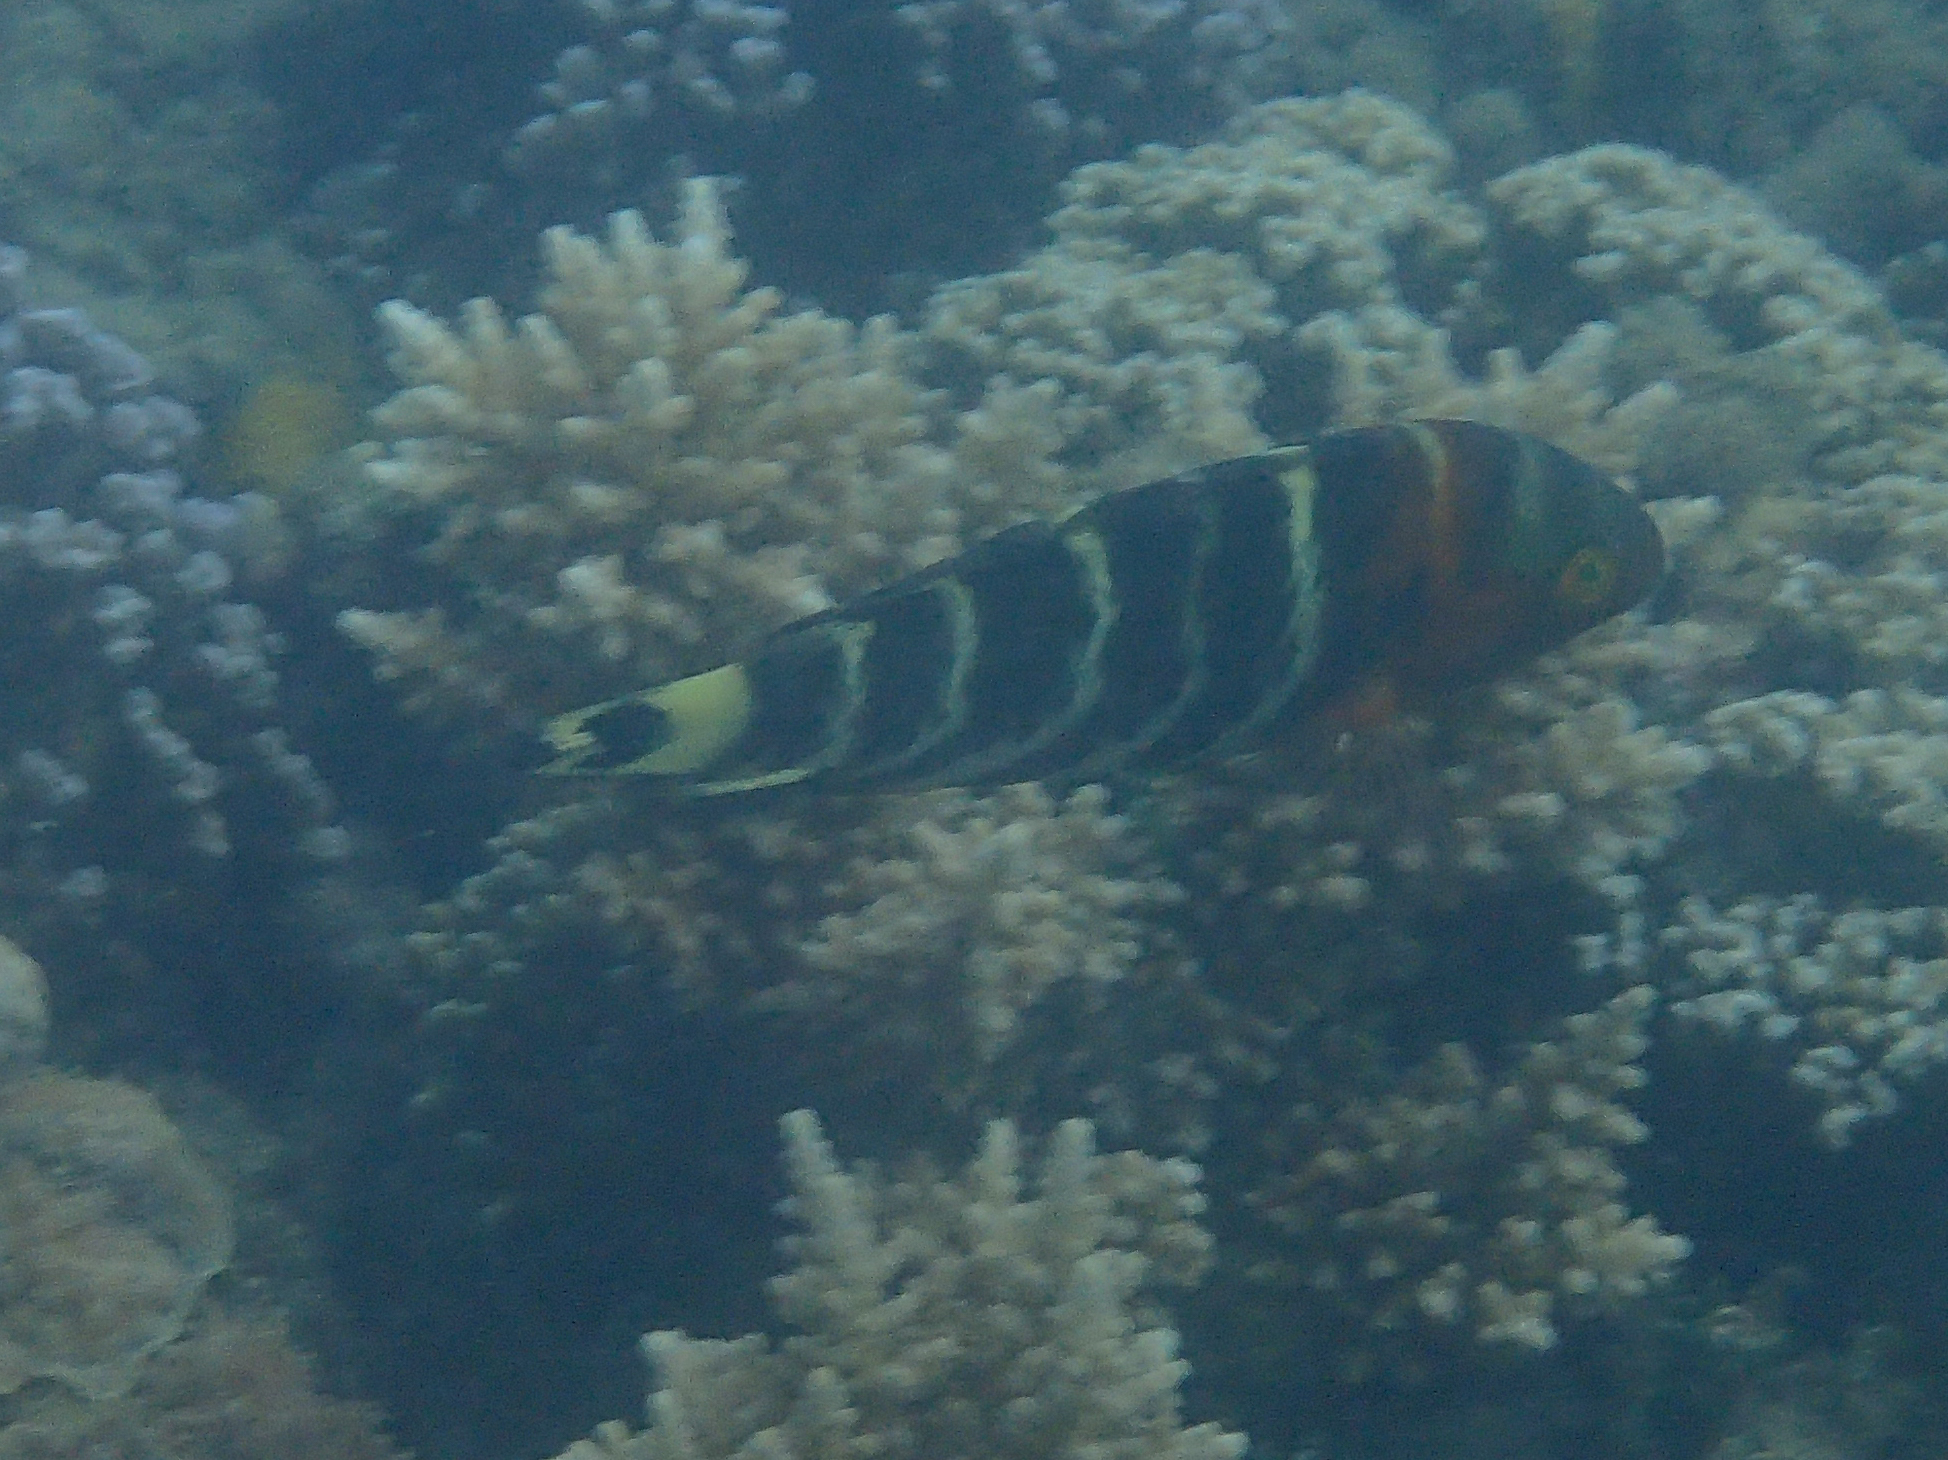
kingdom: Animalia
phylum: Chordata
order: Perciformes
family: Labridae
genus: Cheilinus
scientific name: Cheilinus fasciatus
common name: Red-breasted wrasse
